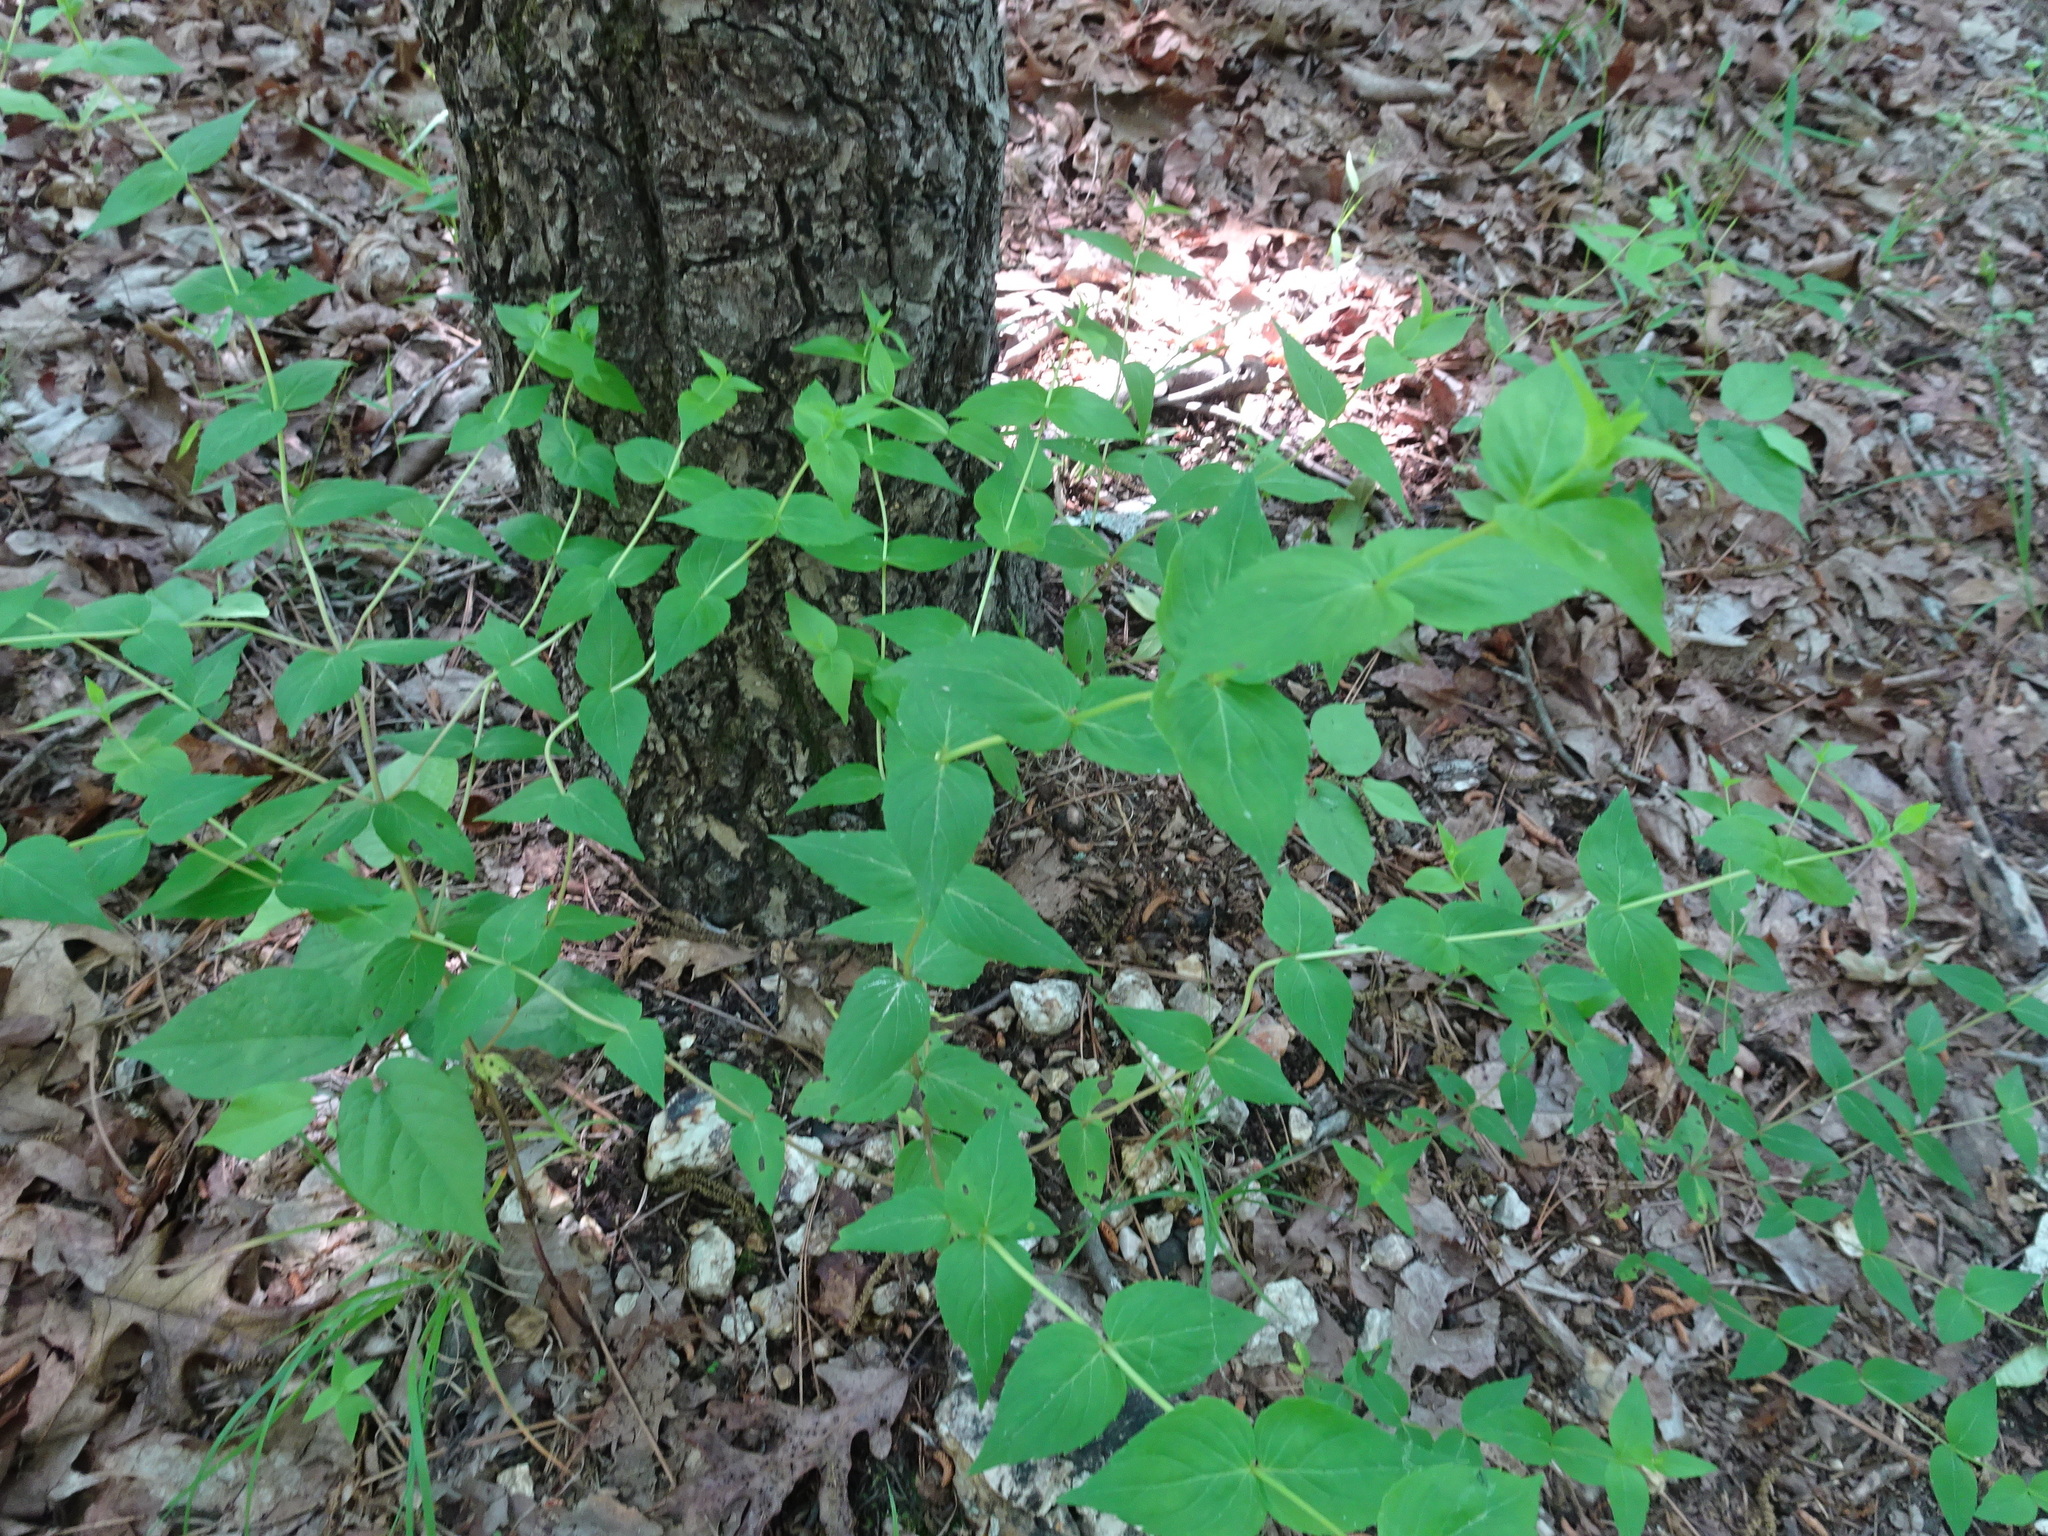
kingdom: Plantae
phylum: Tracheophyta
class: Magnoliopsida
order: Lamiales
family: Lamiaceae
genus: Cunila
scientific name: Cunila origanoides
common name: American dittany
